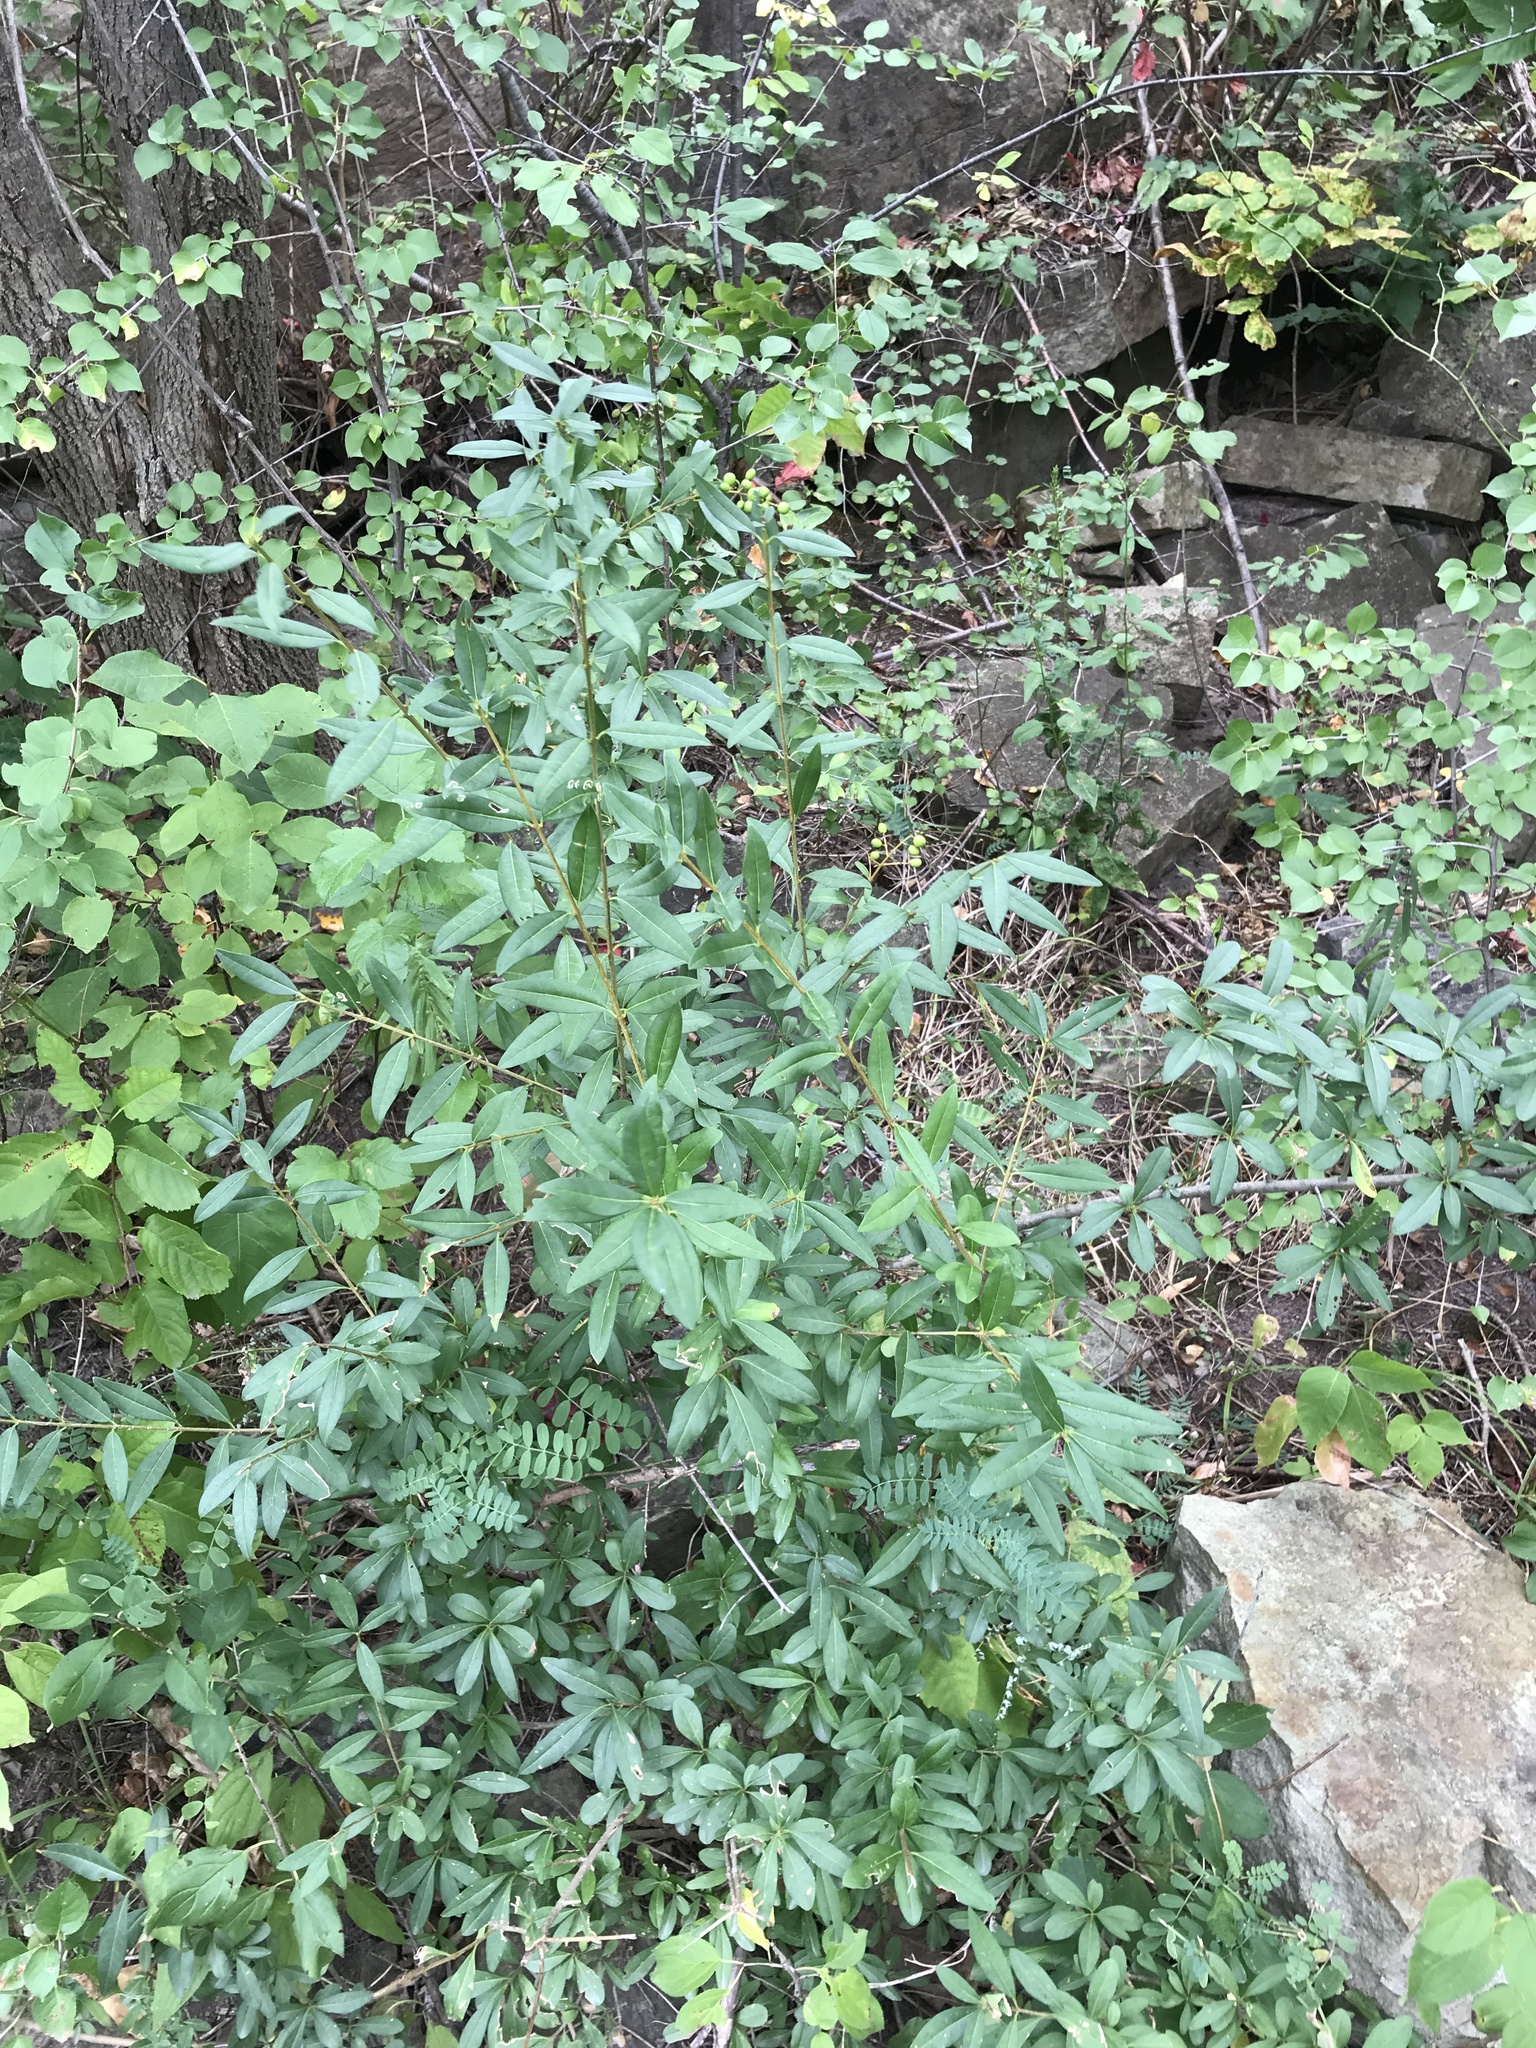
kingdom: Plantae
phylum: Tracheophyta
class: Magnoliopsida
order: Lamiales
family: Oleaceae
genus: Ligustrum
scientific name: Ligustrum vulgare
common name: Wild privet
